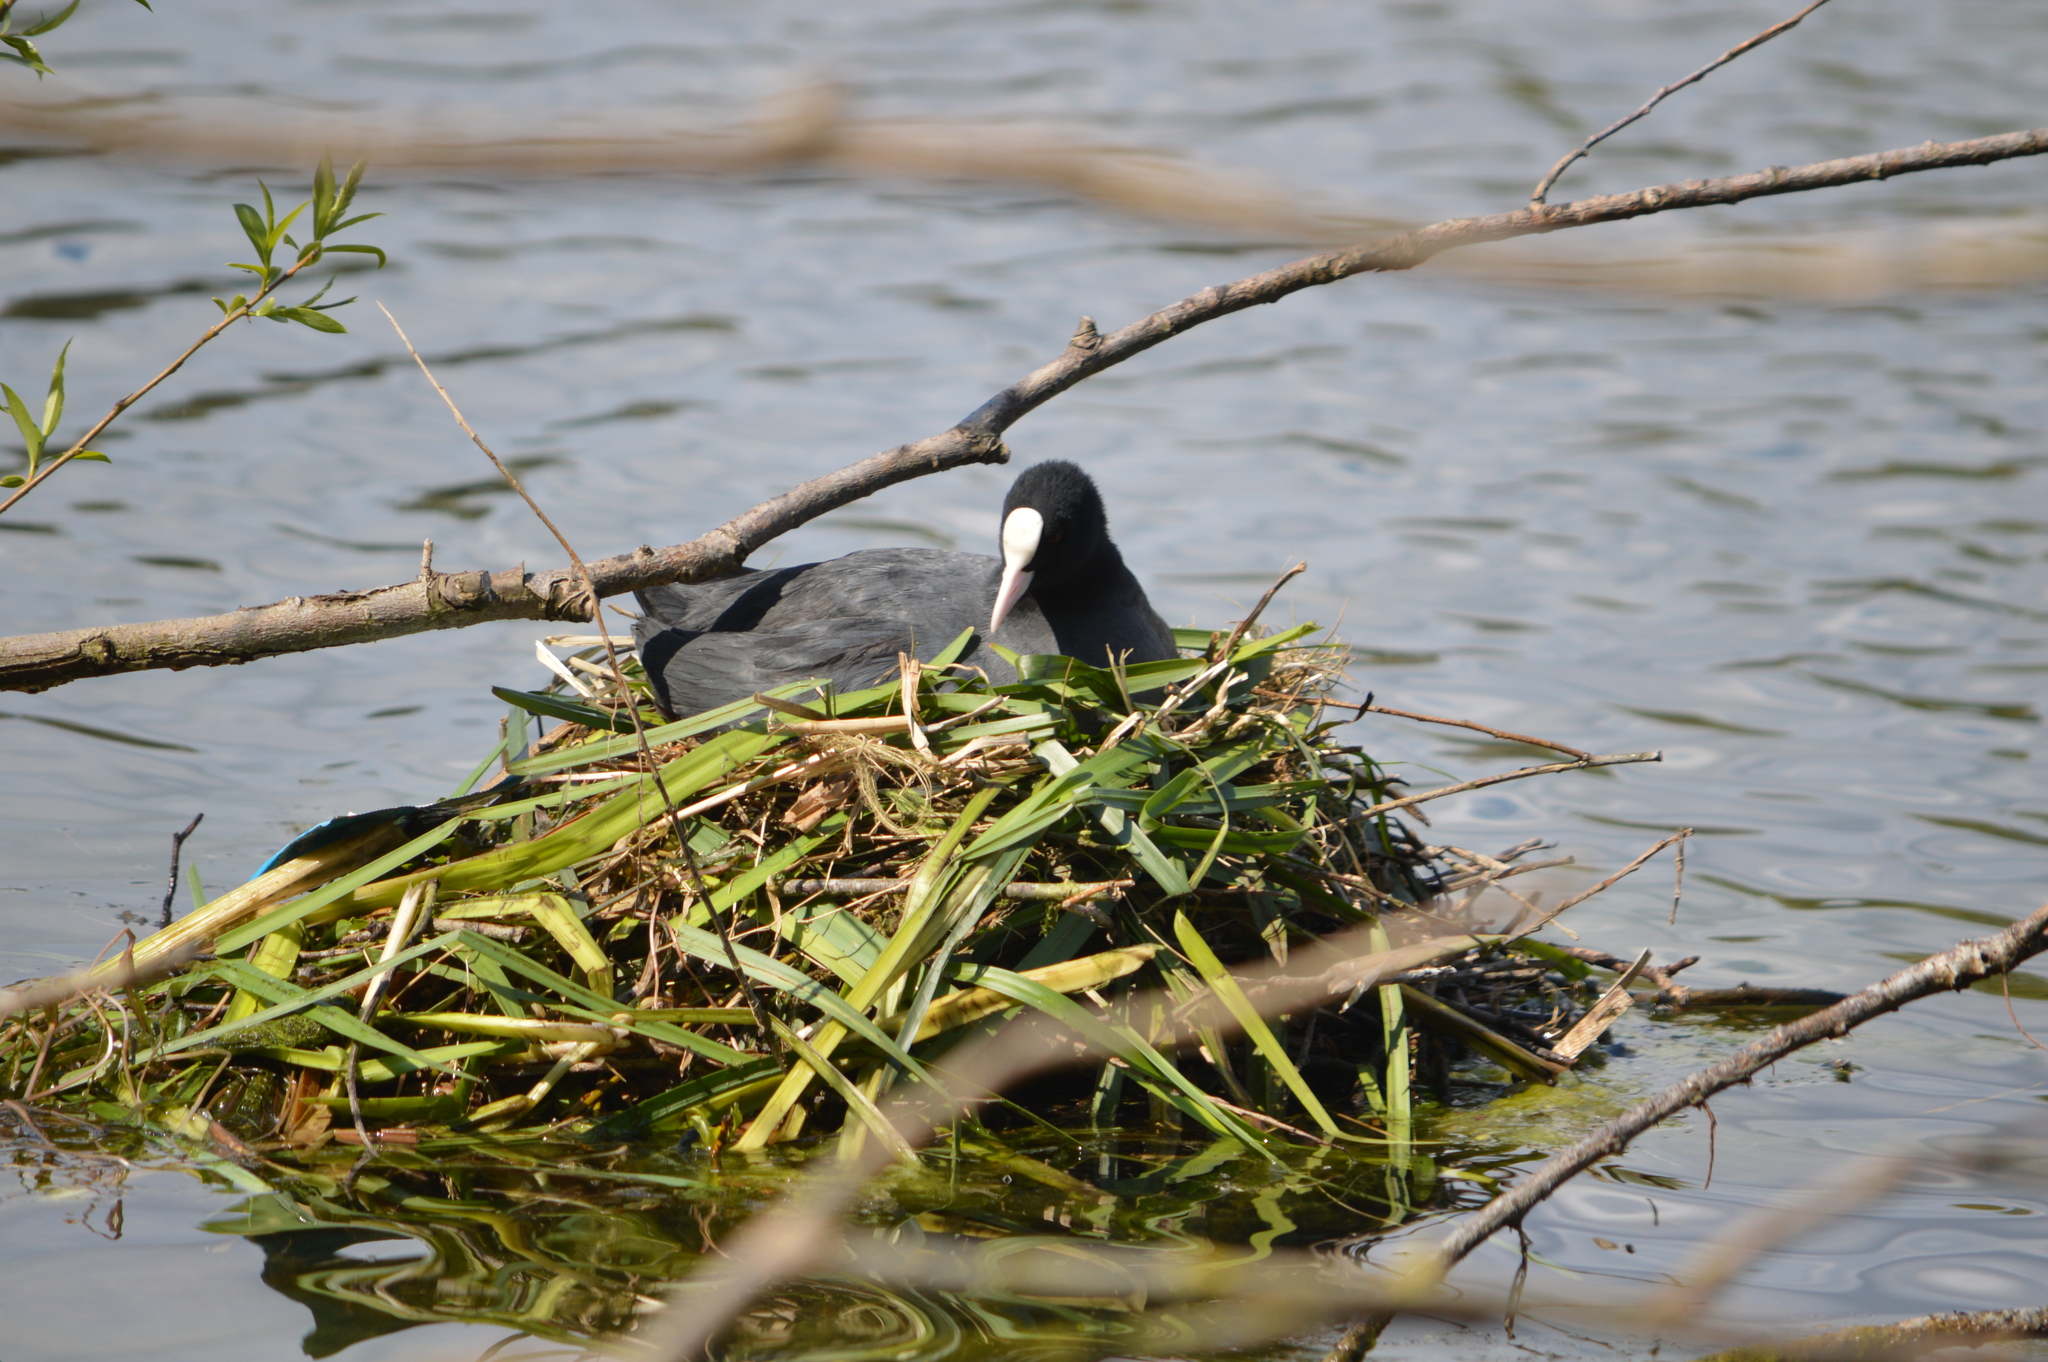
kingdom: Animalia
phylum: Chordata
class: Aves
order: Gruiformes
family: Rallidae
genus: Fulica
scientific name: Fulica atra
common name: Eurasian coot
